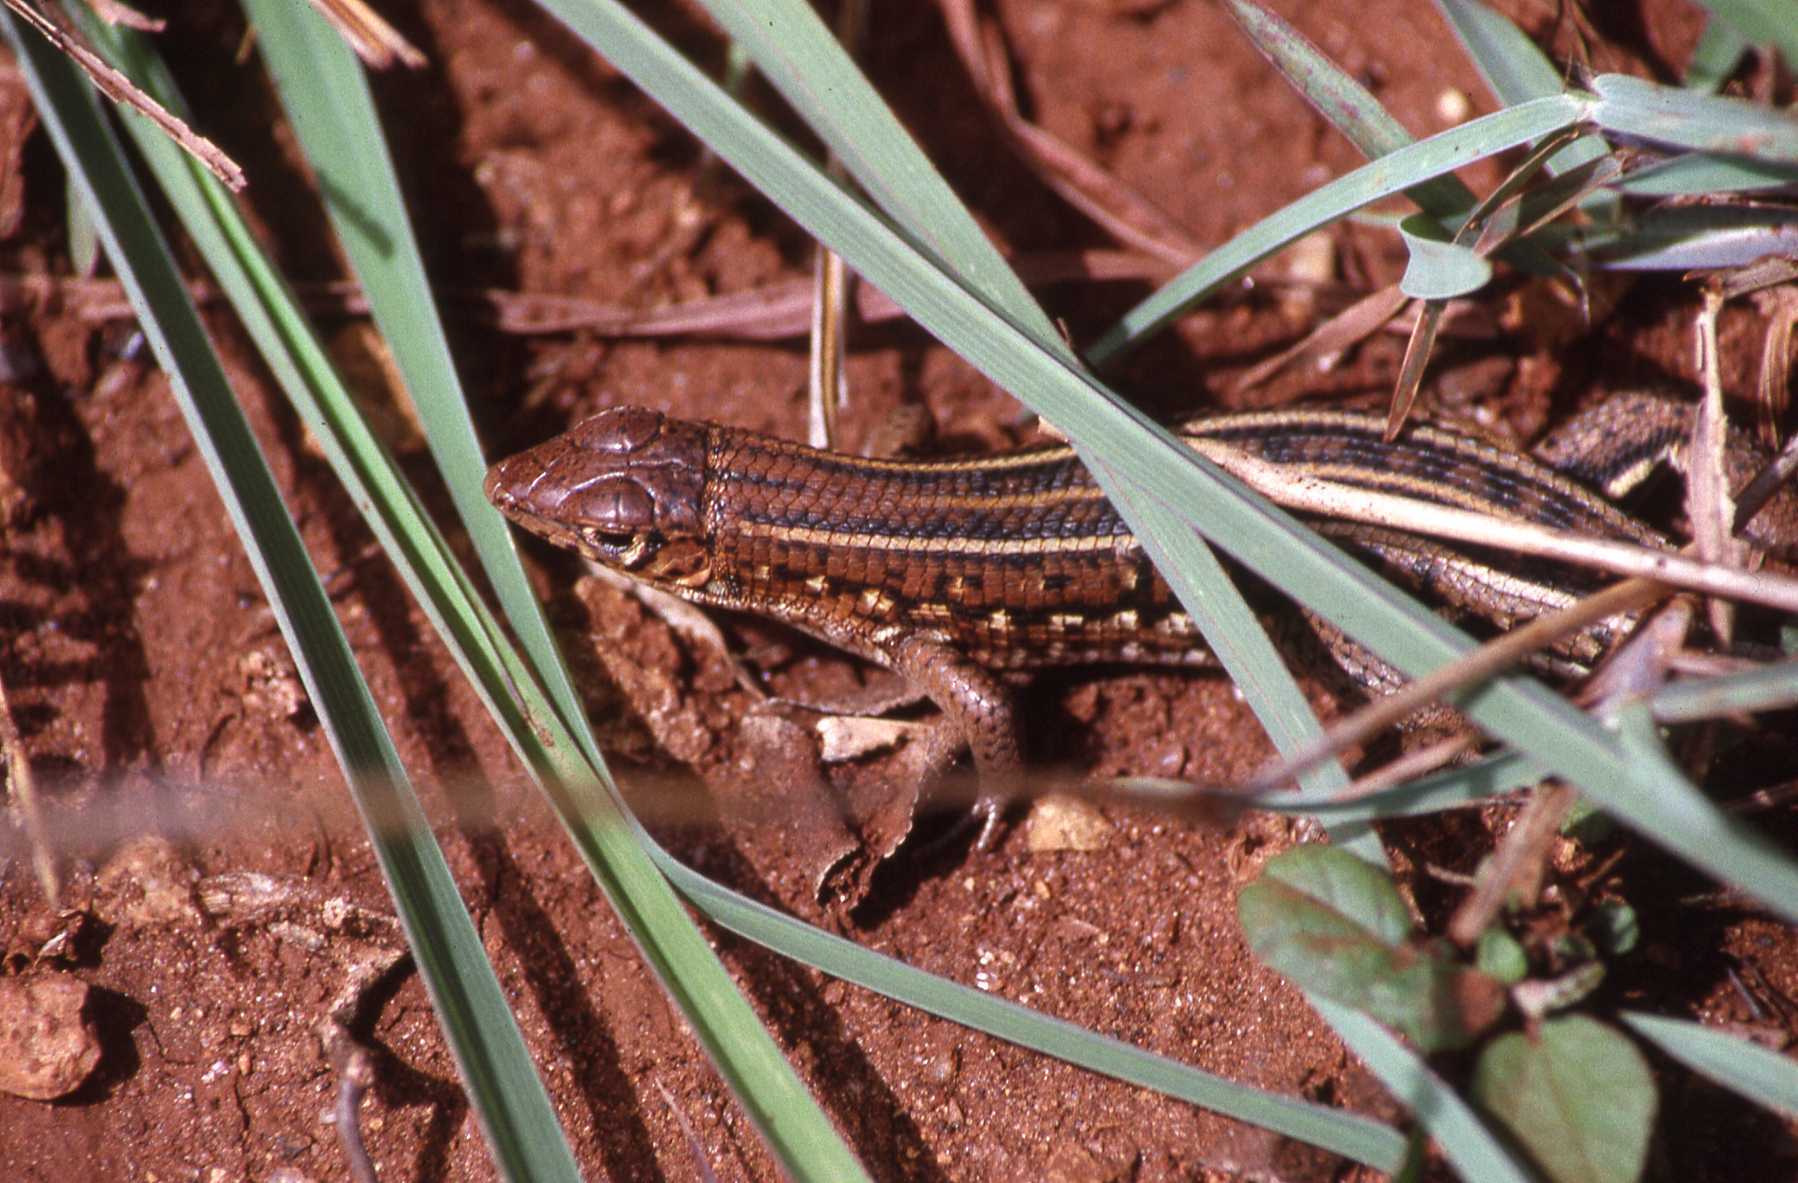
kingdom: Animalia
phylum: Chordata
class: Squamata
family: Gerrhosauridae
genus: Tracheloptychus
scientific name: Tracheloptychus madagascariensis
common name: Madagascar girdled lizard
